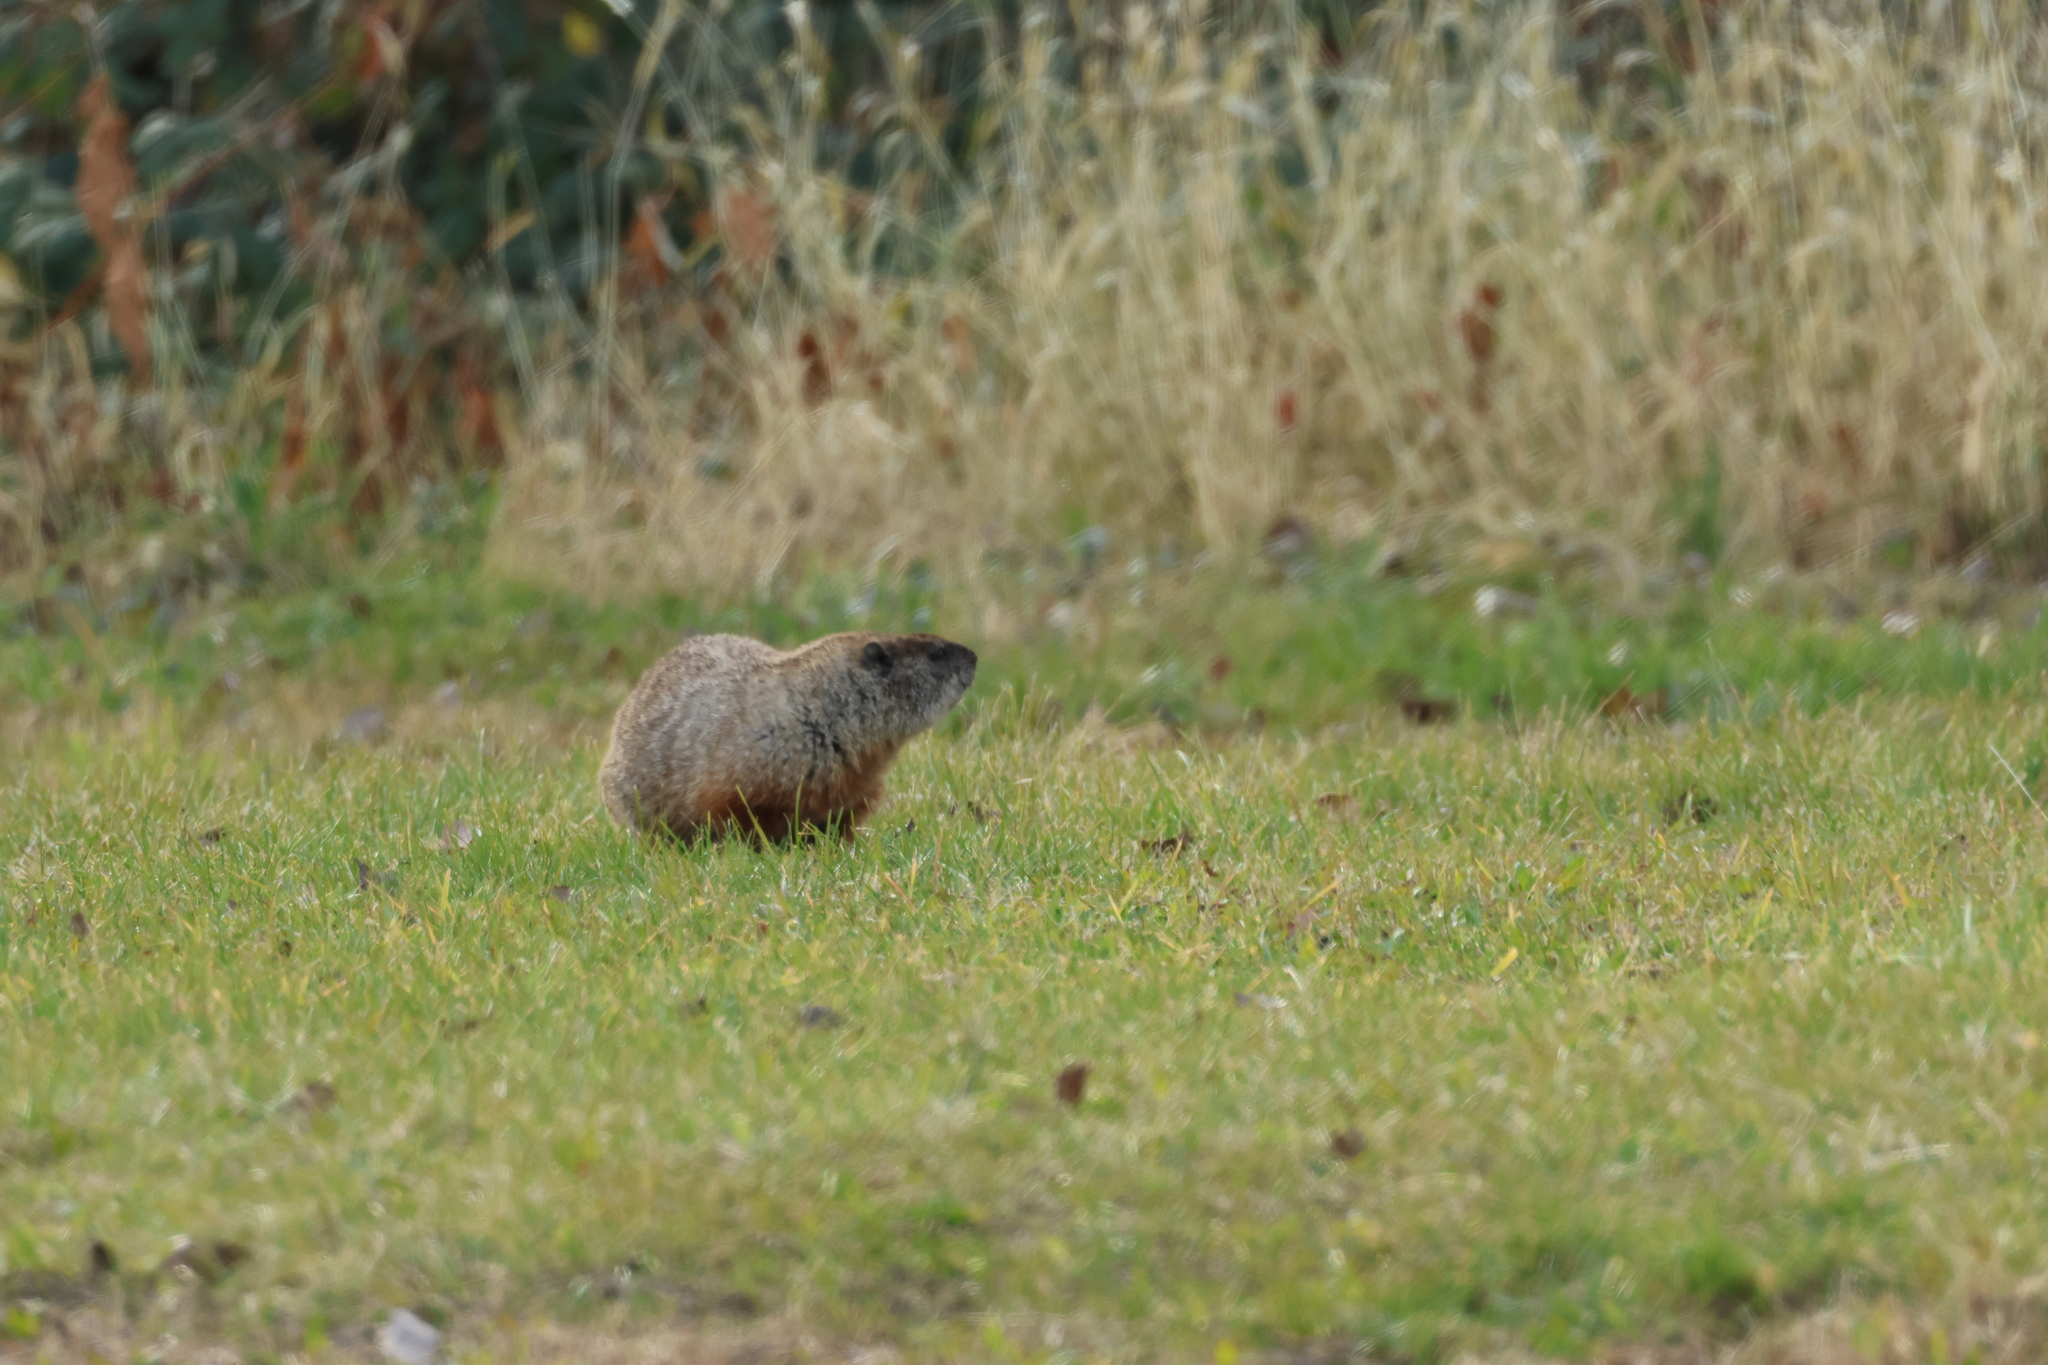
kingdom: Animalia
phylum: Chordata
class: Mammalia
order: Rodentia
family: Sciuridae
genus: Marmota
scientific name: Marmota monax
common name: Groundhog
